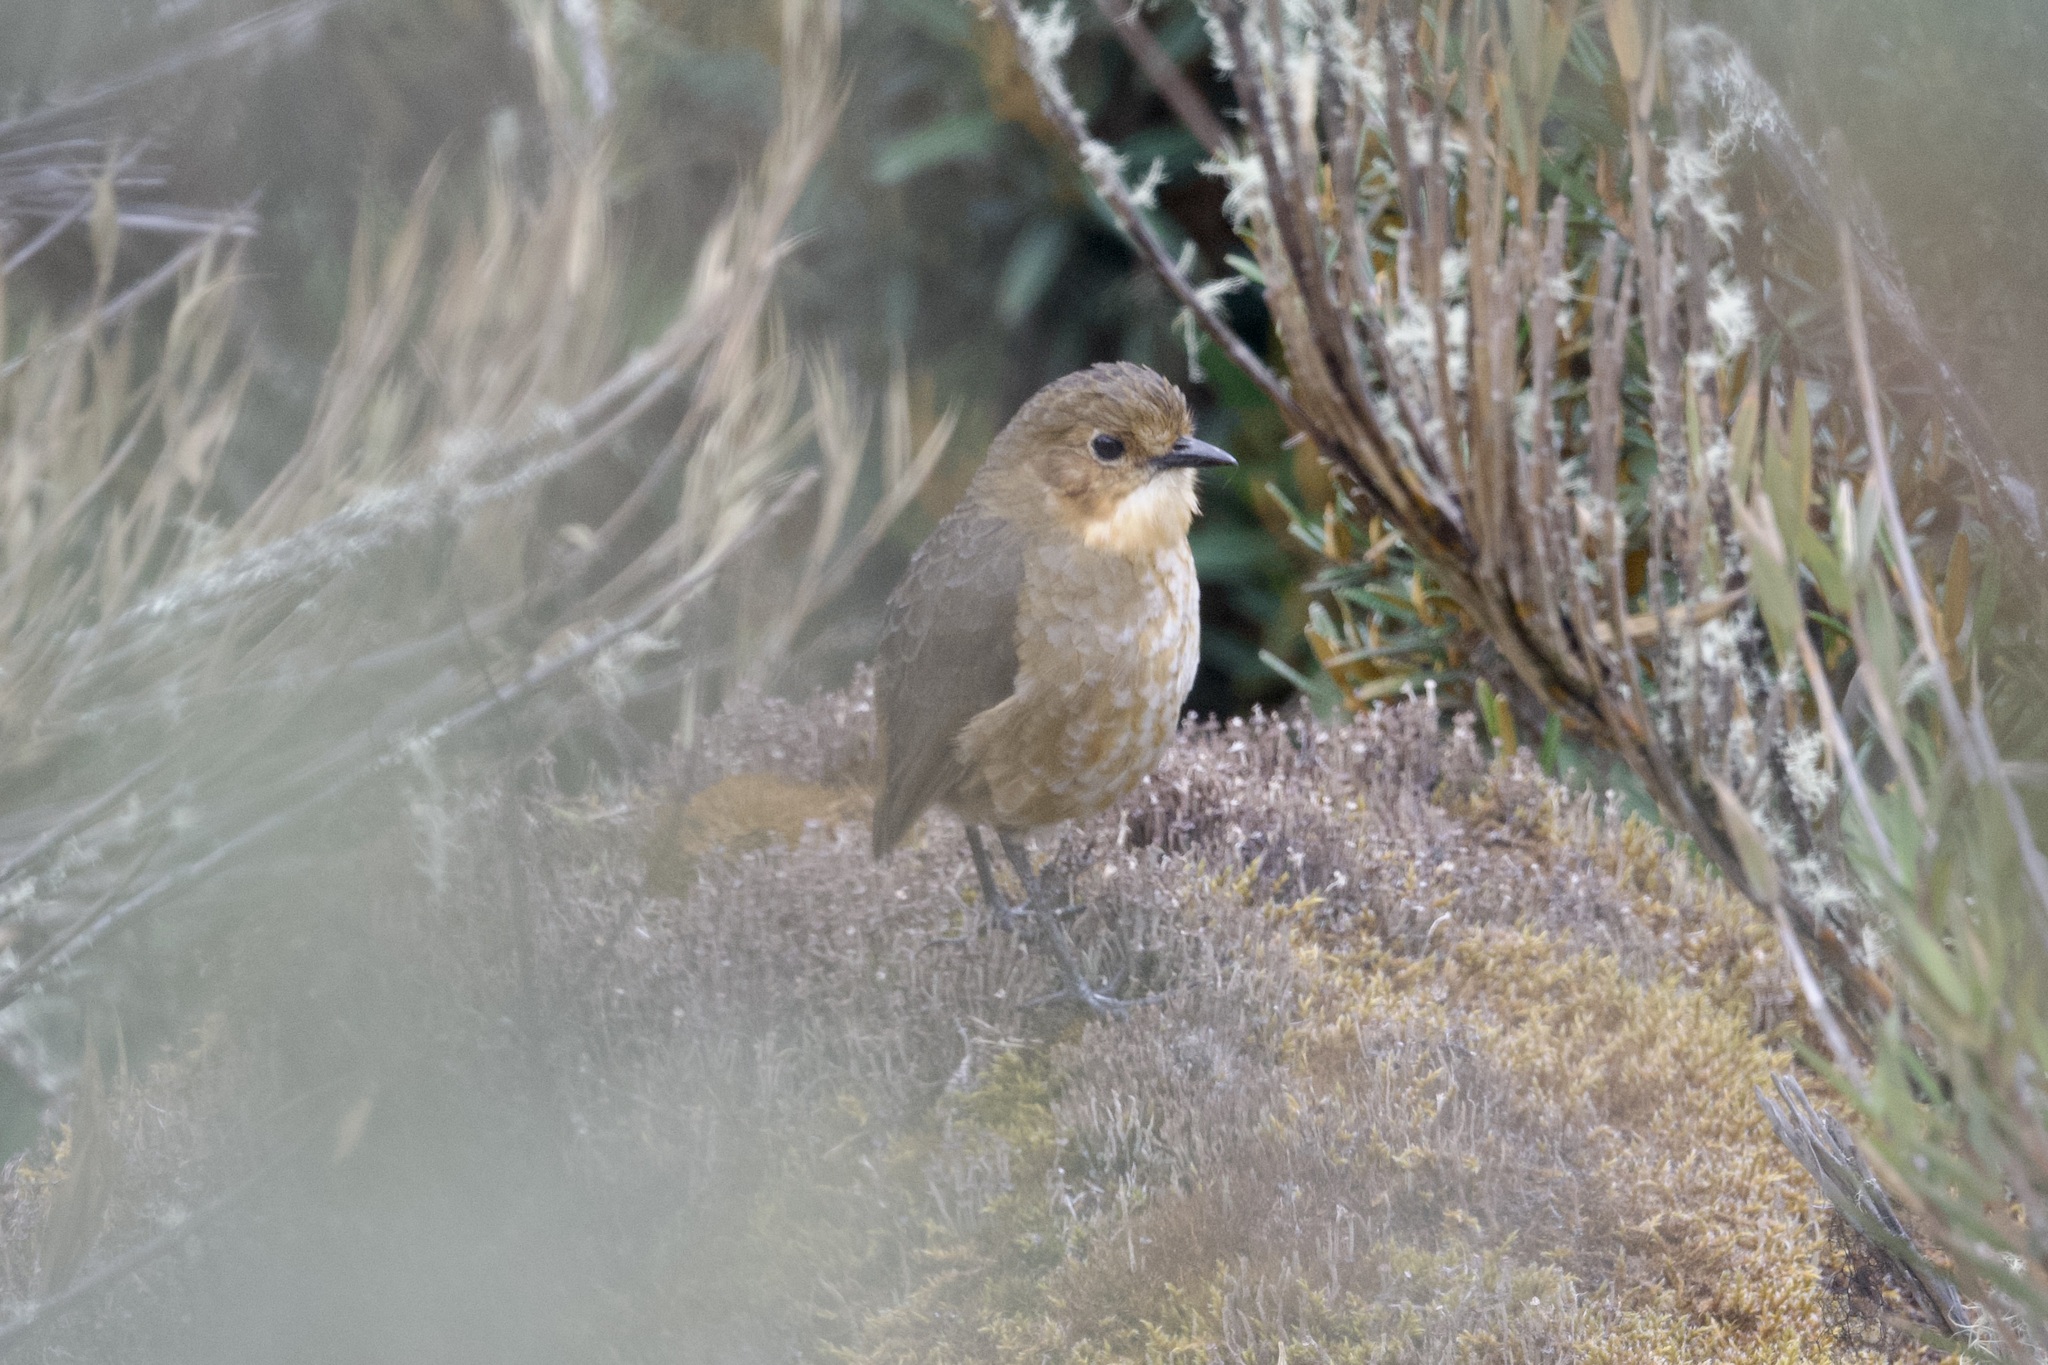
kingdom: Animalia
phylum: Chordata
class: Aves
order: Passeriformes
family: Grallariidae
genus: Grallaria
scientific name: Grallaria alticola
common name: Boyaca antpitta
